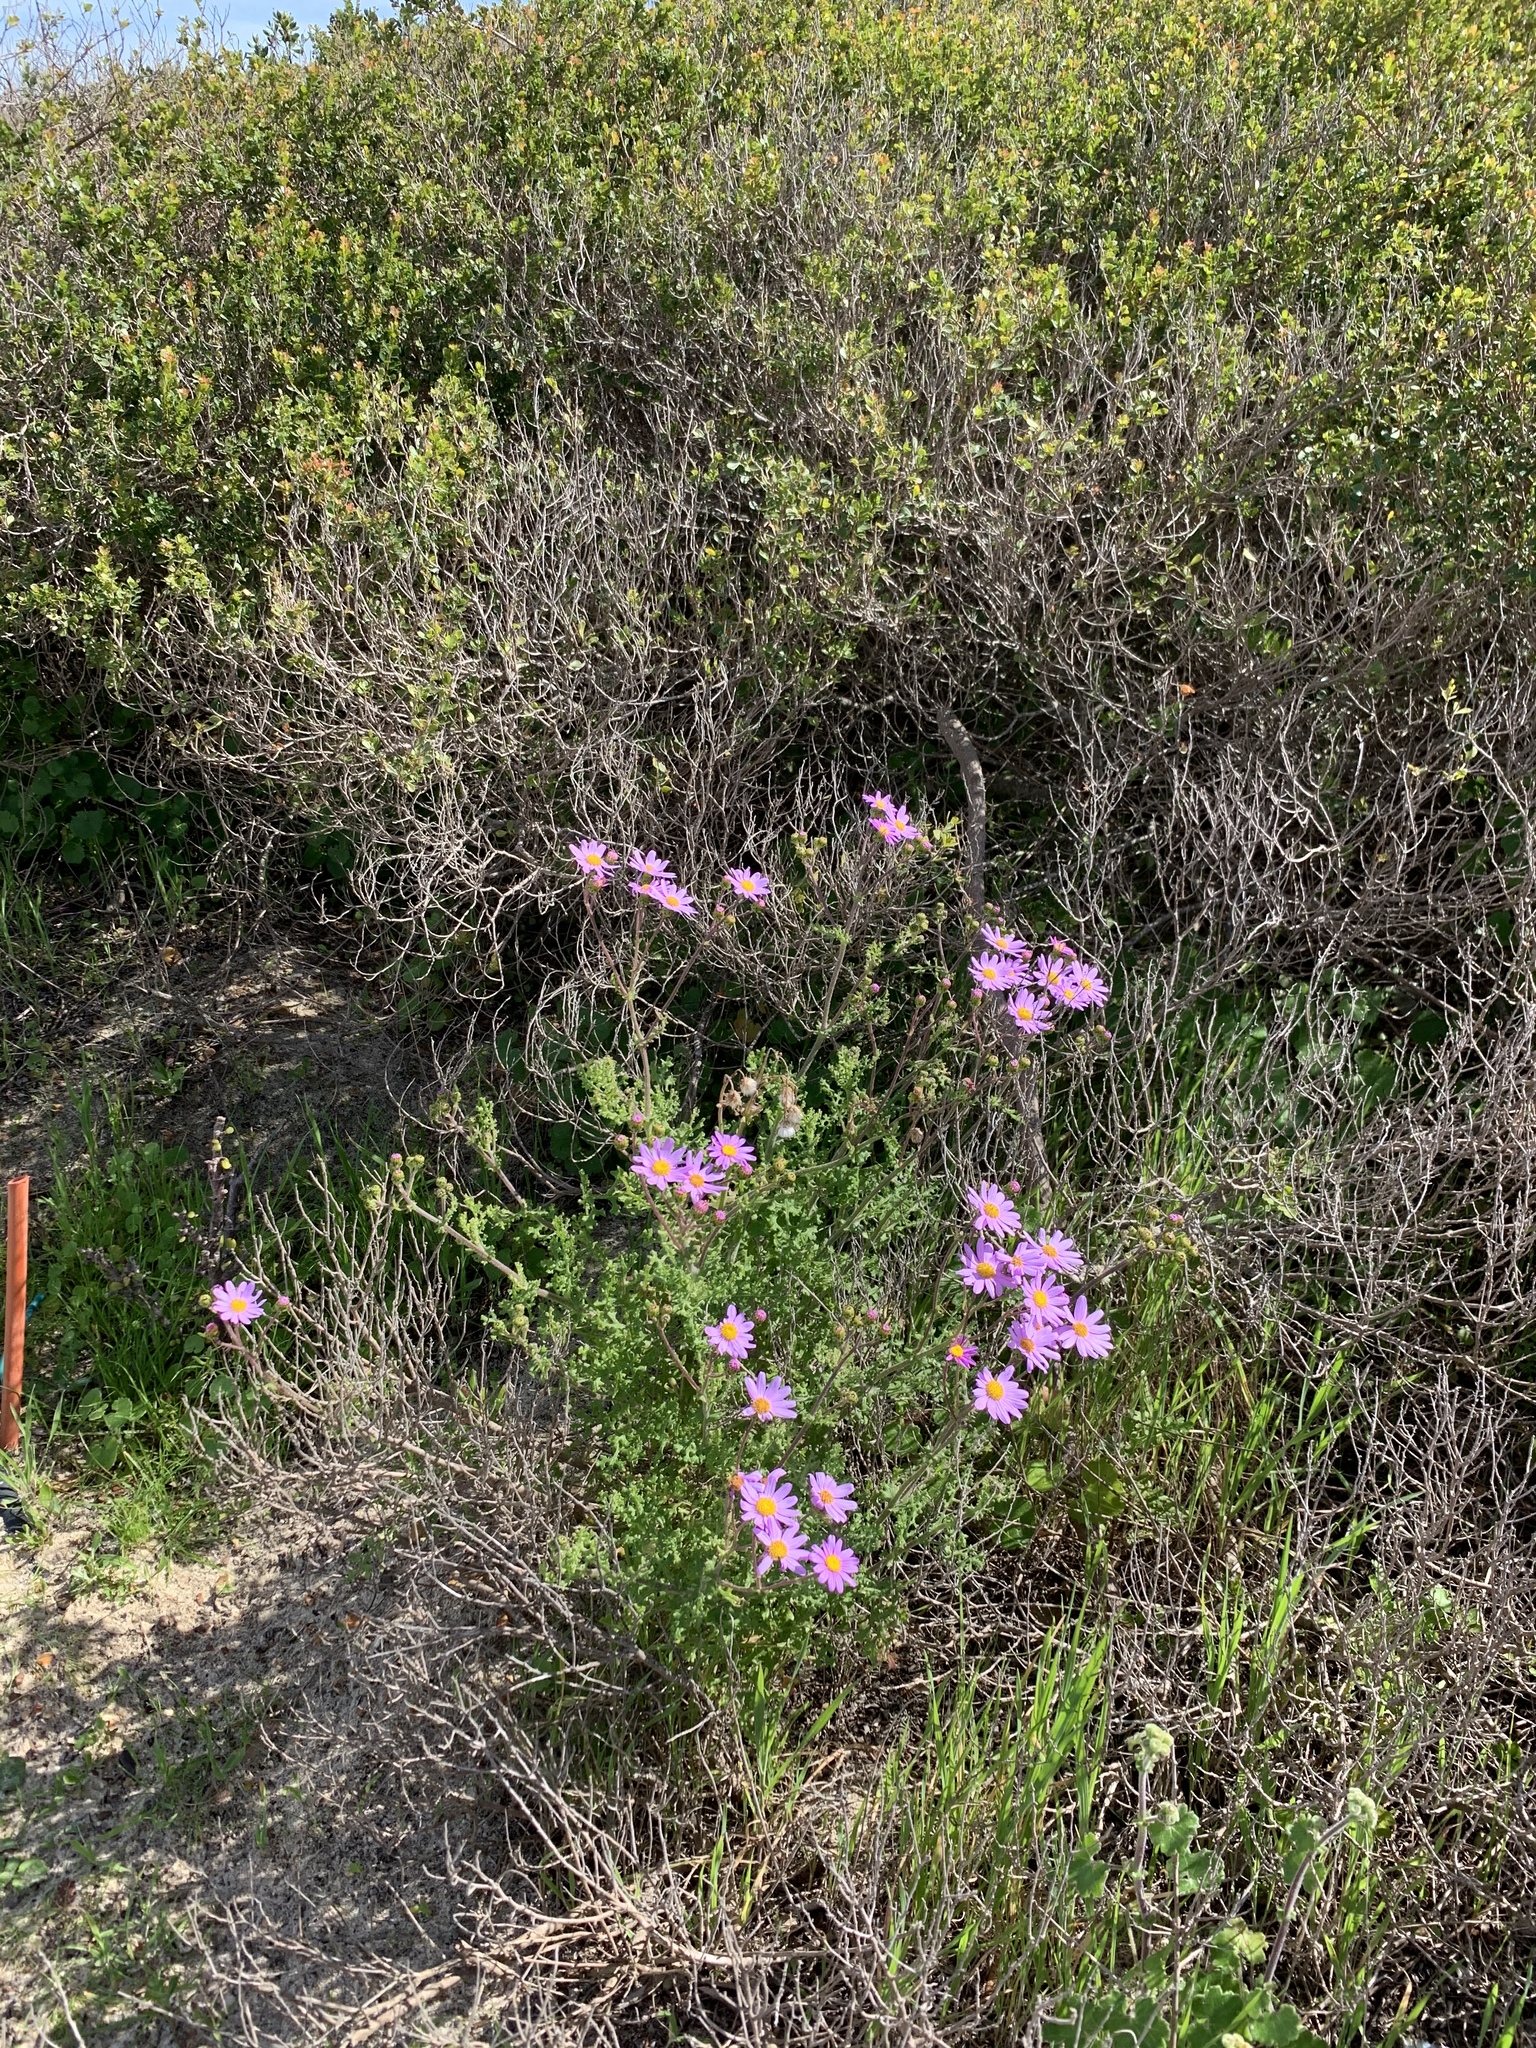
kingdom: Plantae
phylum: Tracheophyta
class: Magnoliopsida
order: Asterales
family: Asteraceae
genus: Senecio
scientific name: Senecio elegans
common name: Purple groundsel
